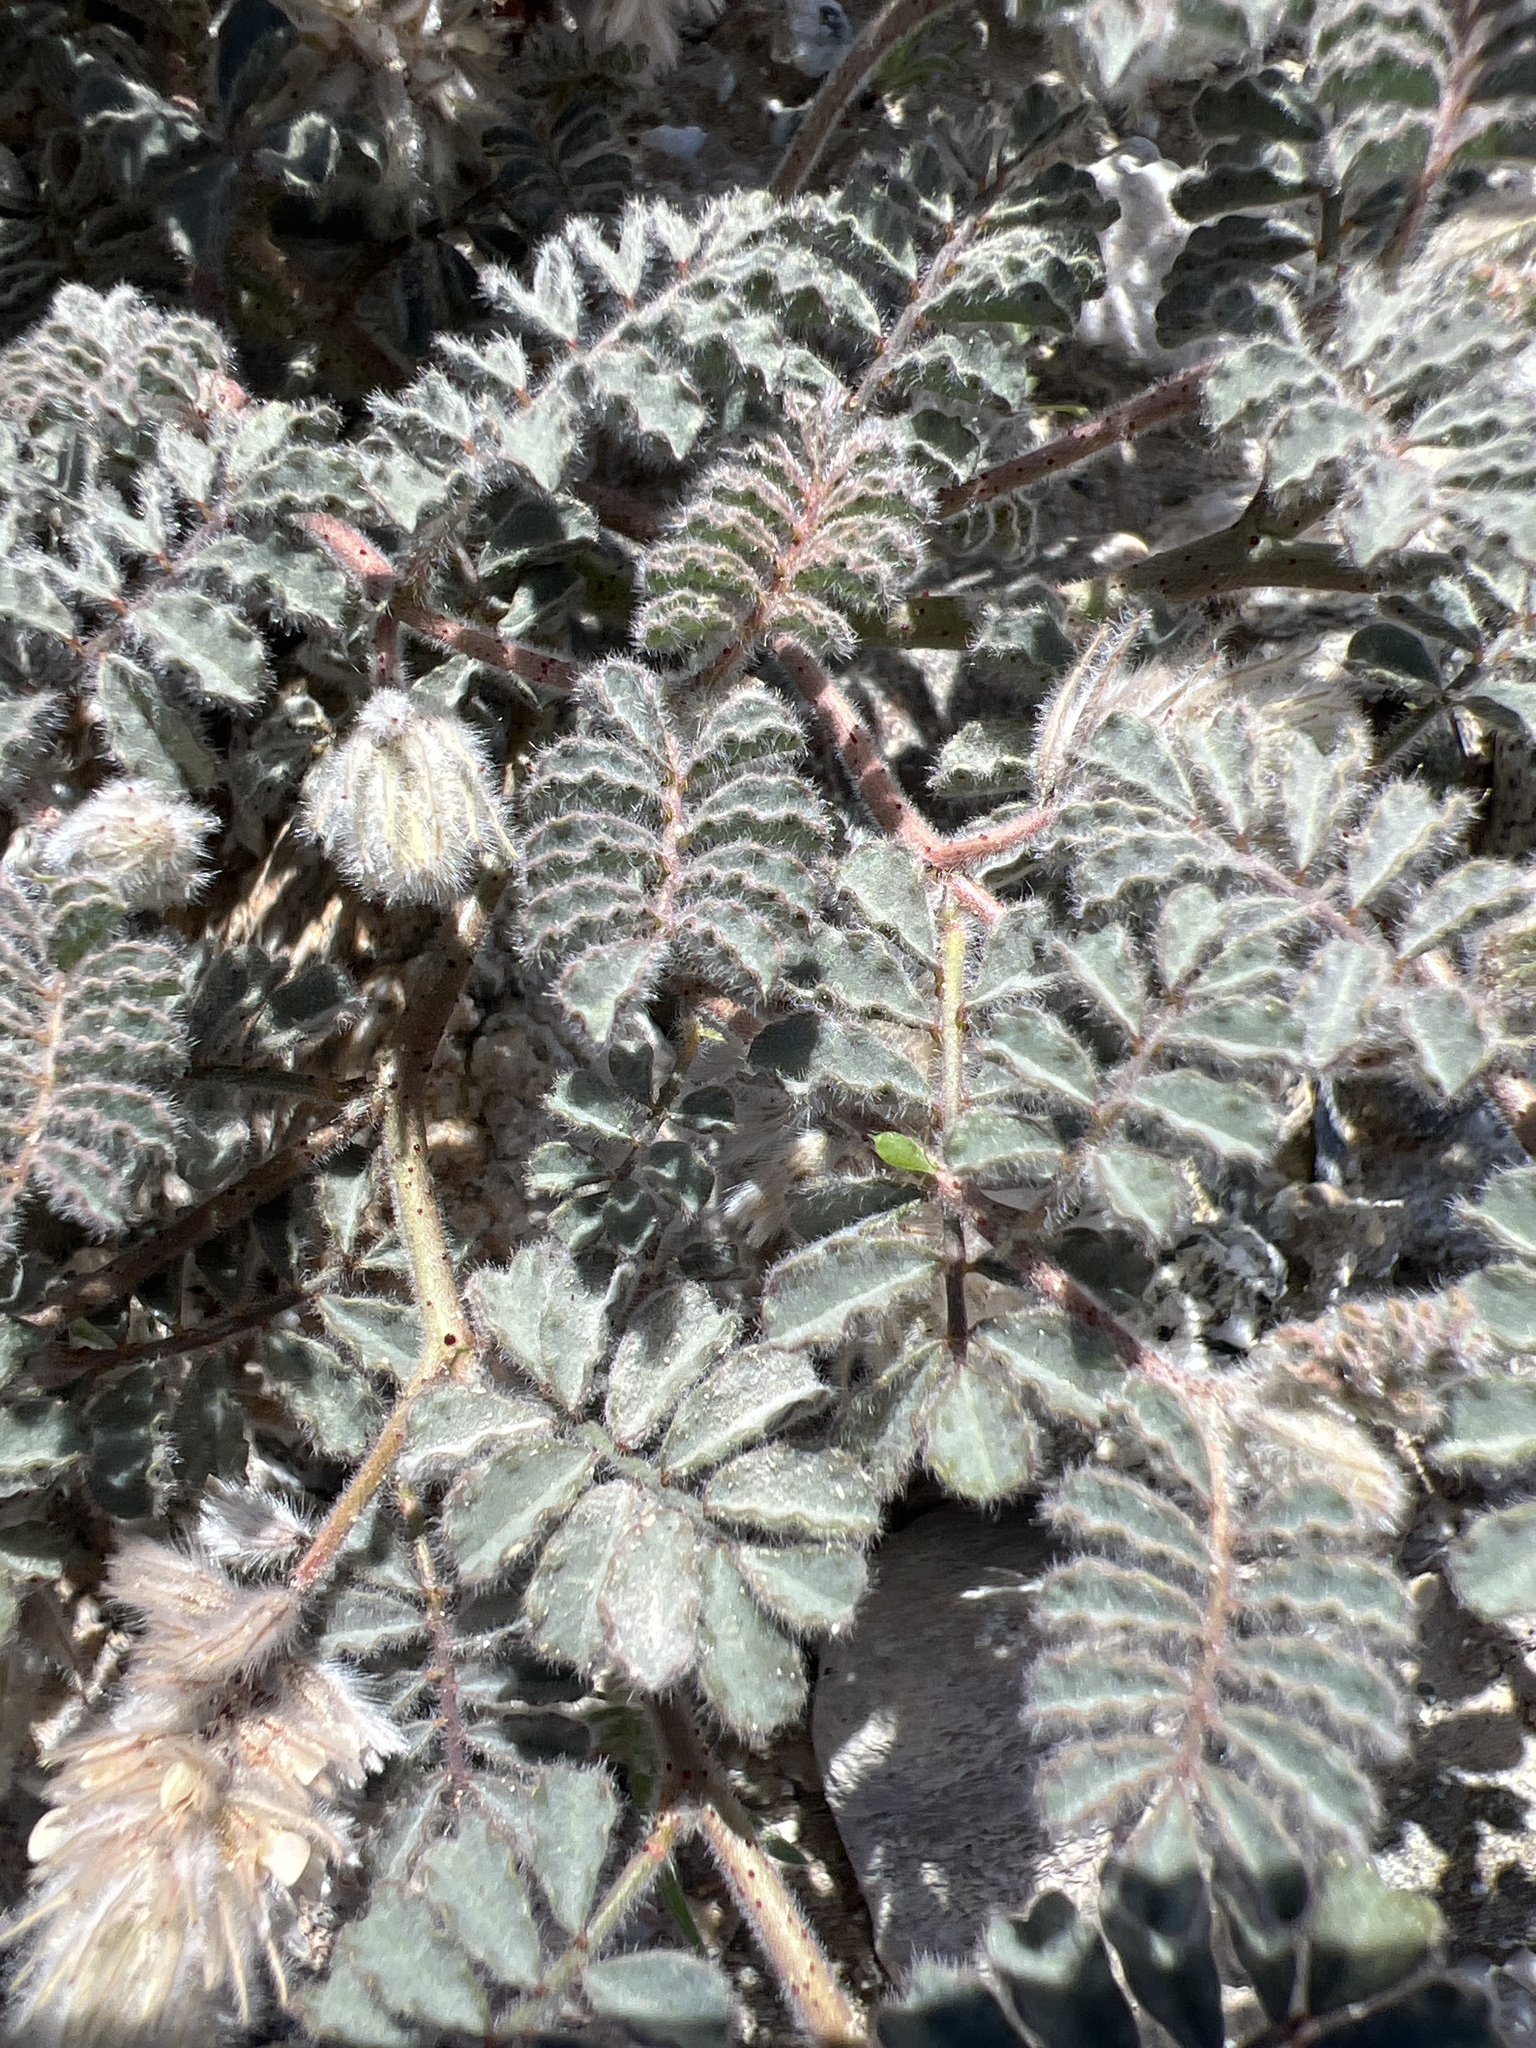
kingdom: Plantae
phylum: Tracheophyta
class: Magnoliopsida
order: Fabales
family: Fabaceae
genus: Dalea
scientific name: Dalea mollissima
